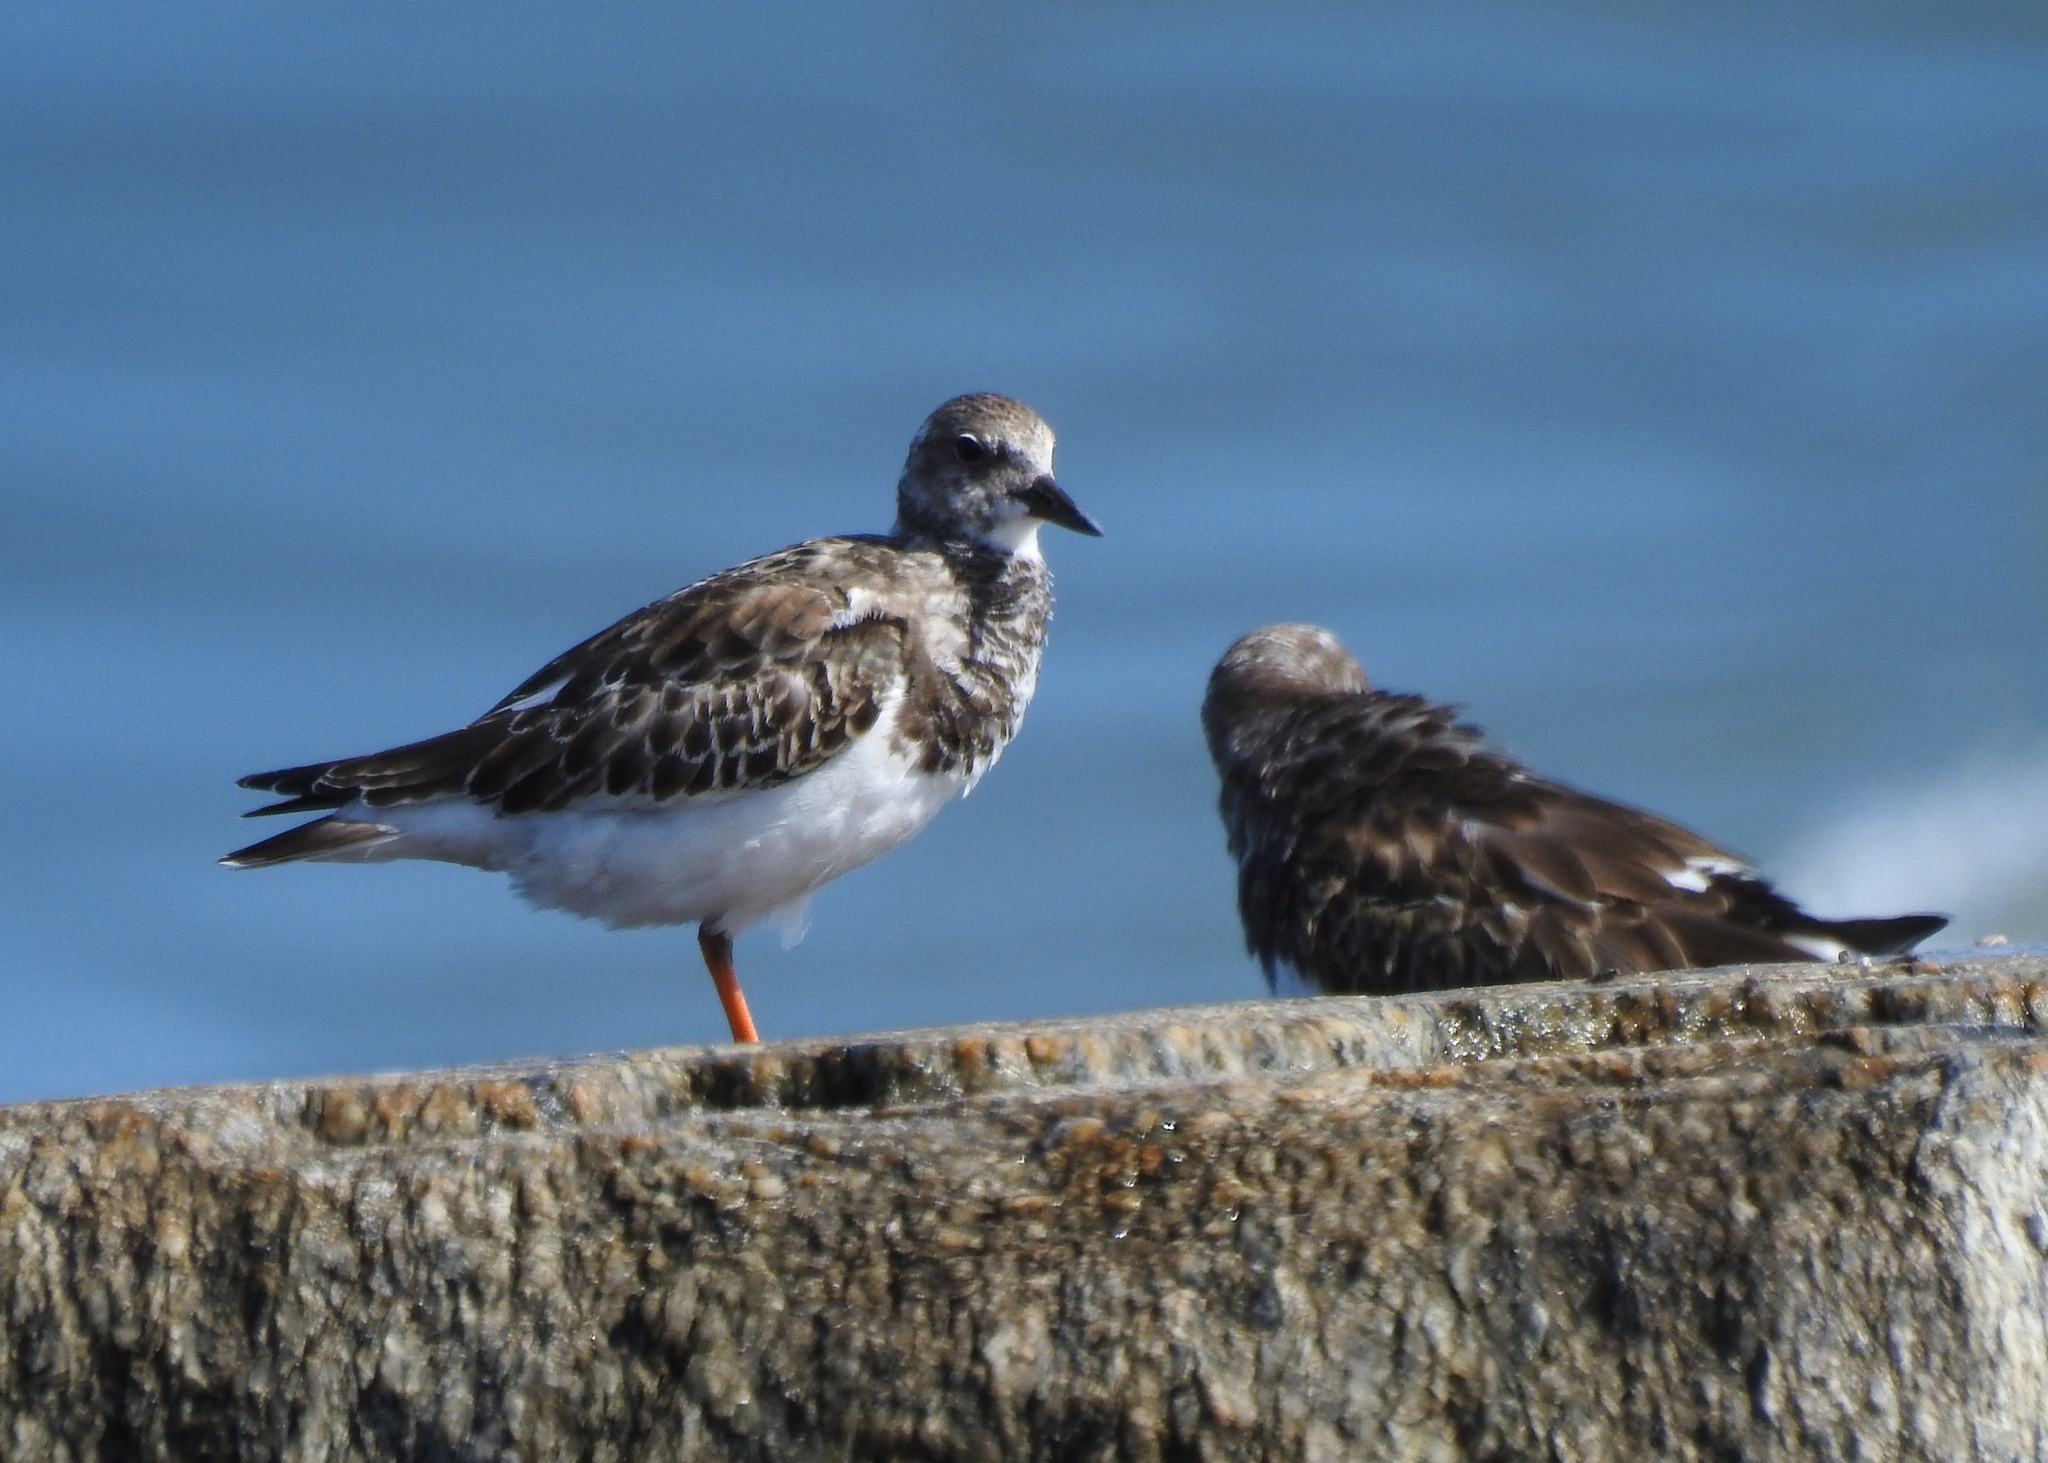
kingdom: Animalia
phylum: Chordata
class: Aves
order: Charadriiformes
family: Scolopacidae
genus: Arenaria
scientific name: Arenaria interpres
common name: Ruddy turnstone
